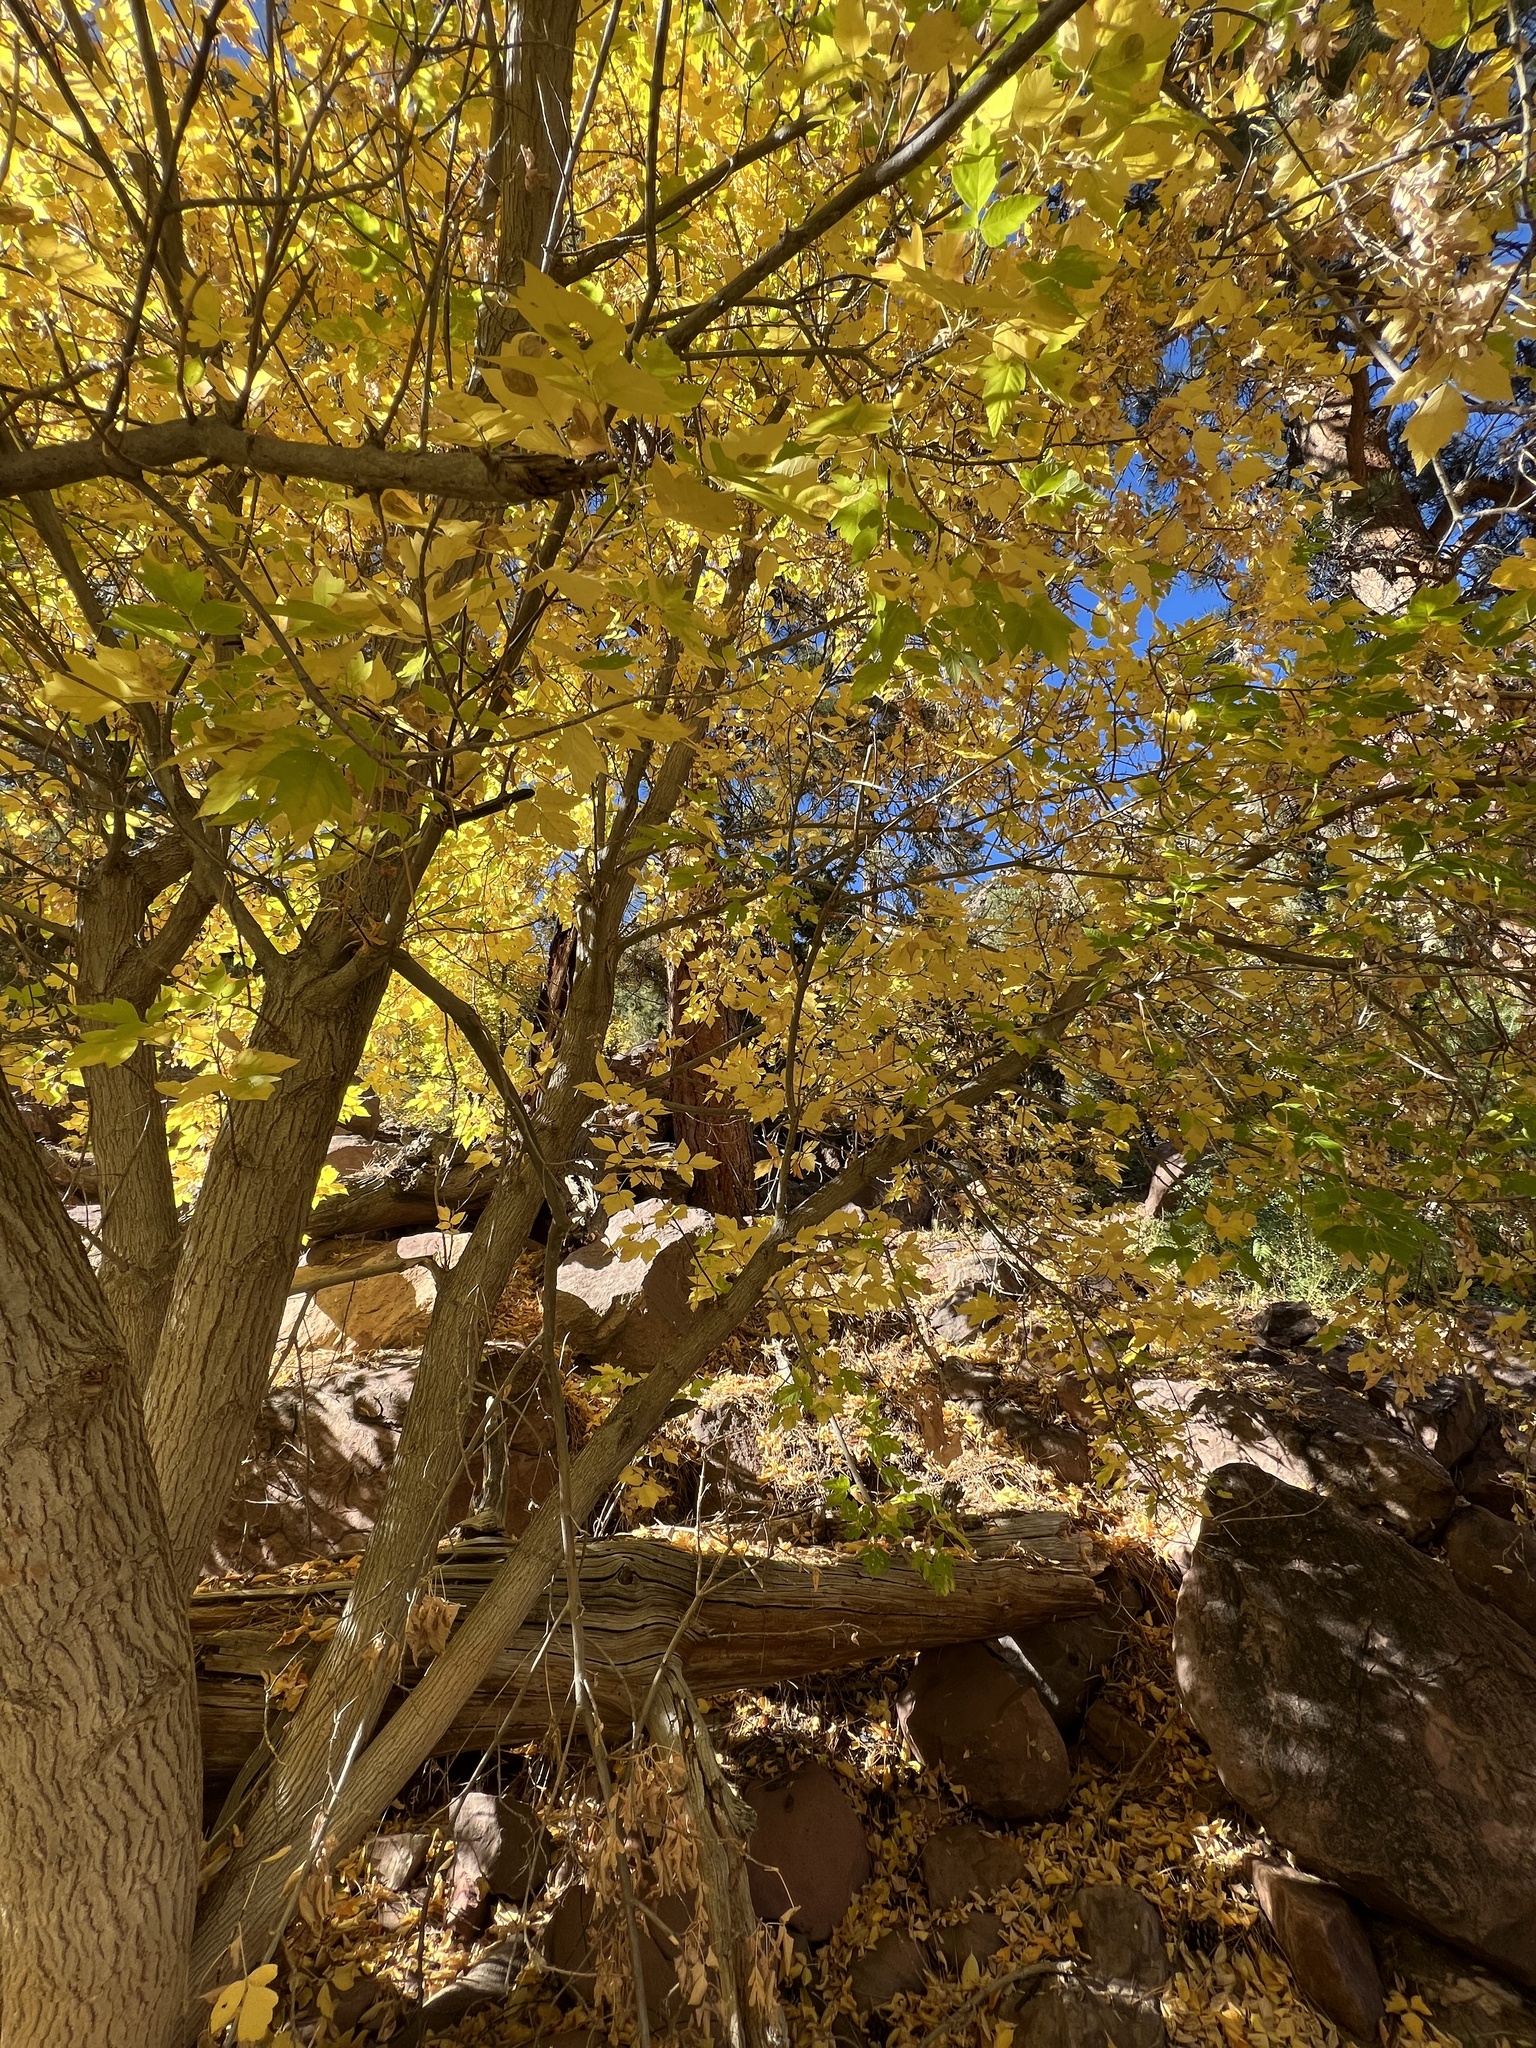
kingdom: Plantae
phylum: Tracheophyta
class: Magnoliopsida
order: Sapindales
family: Sapindaceae
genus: Acer
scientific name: Acer negundo
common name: Ashleaf maple
